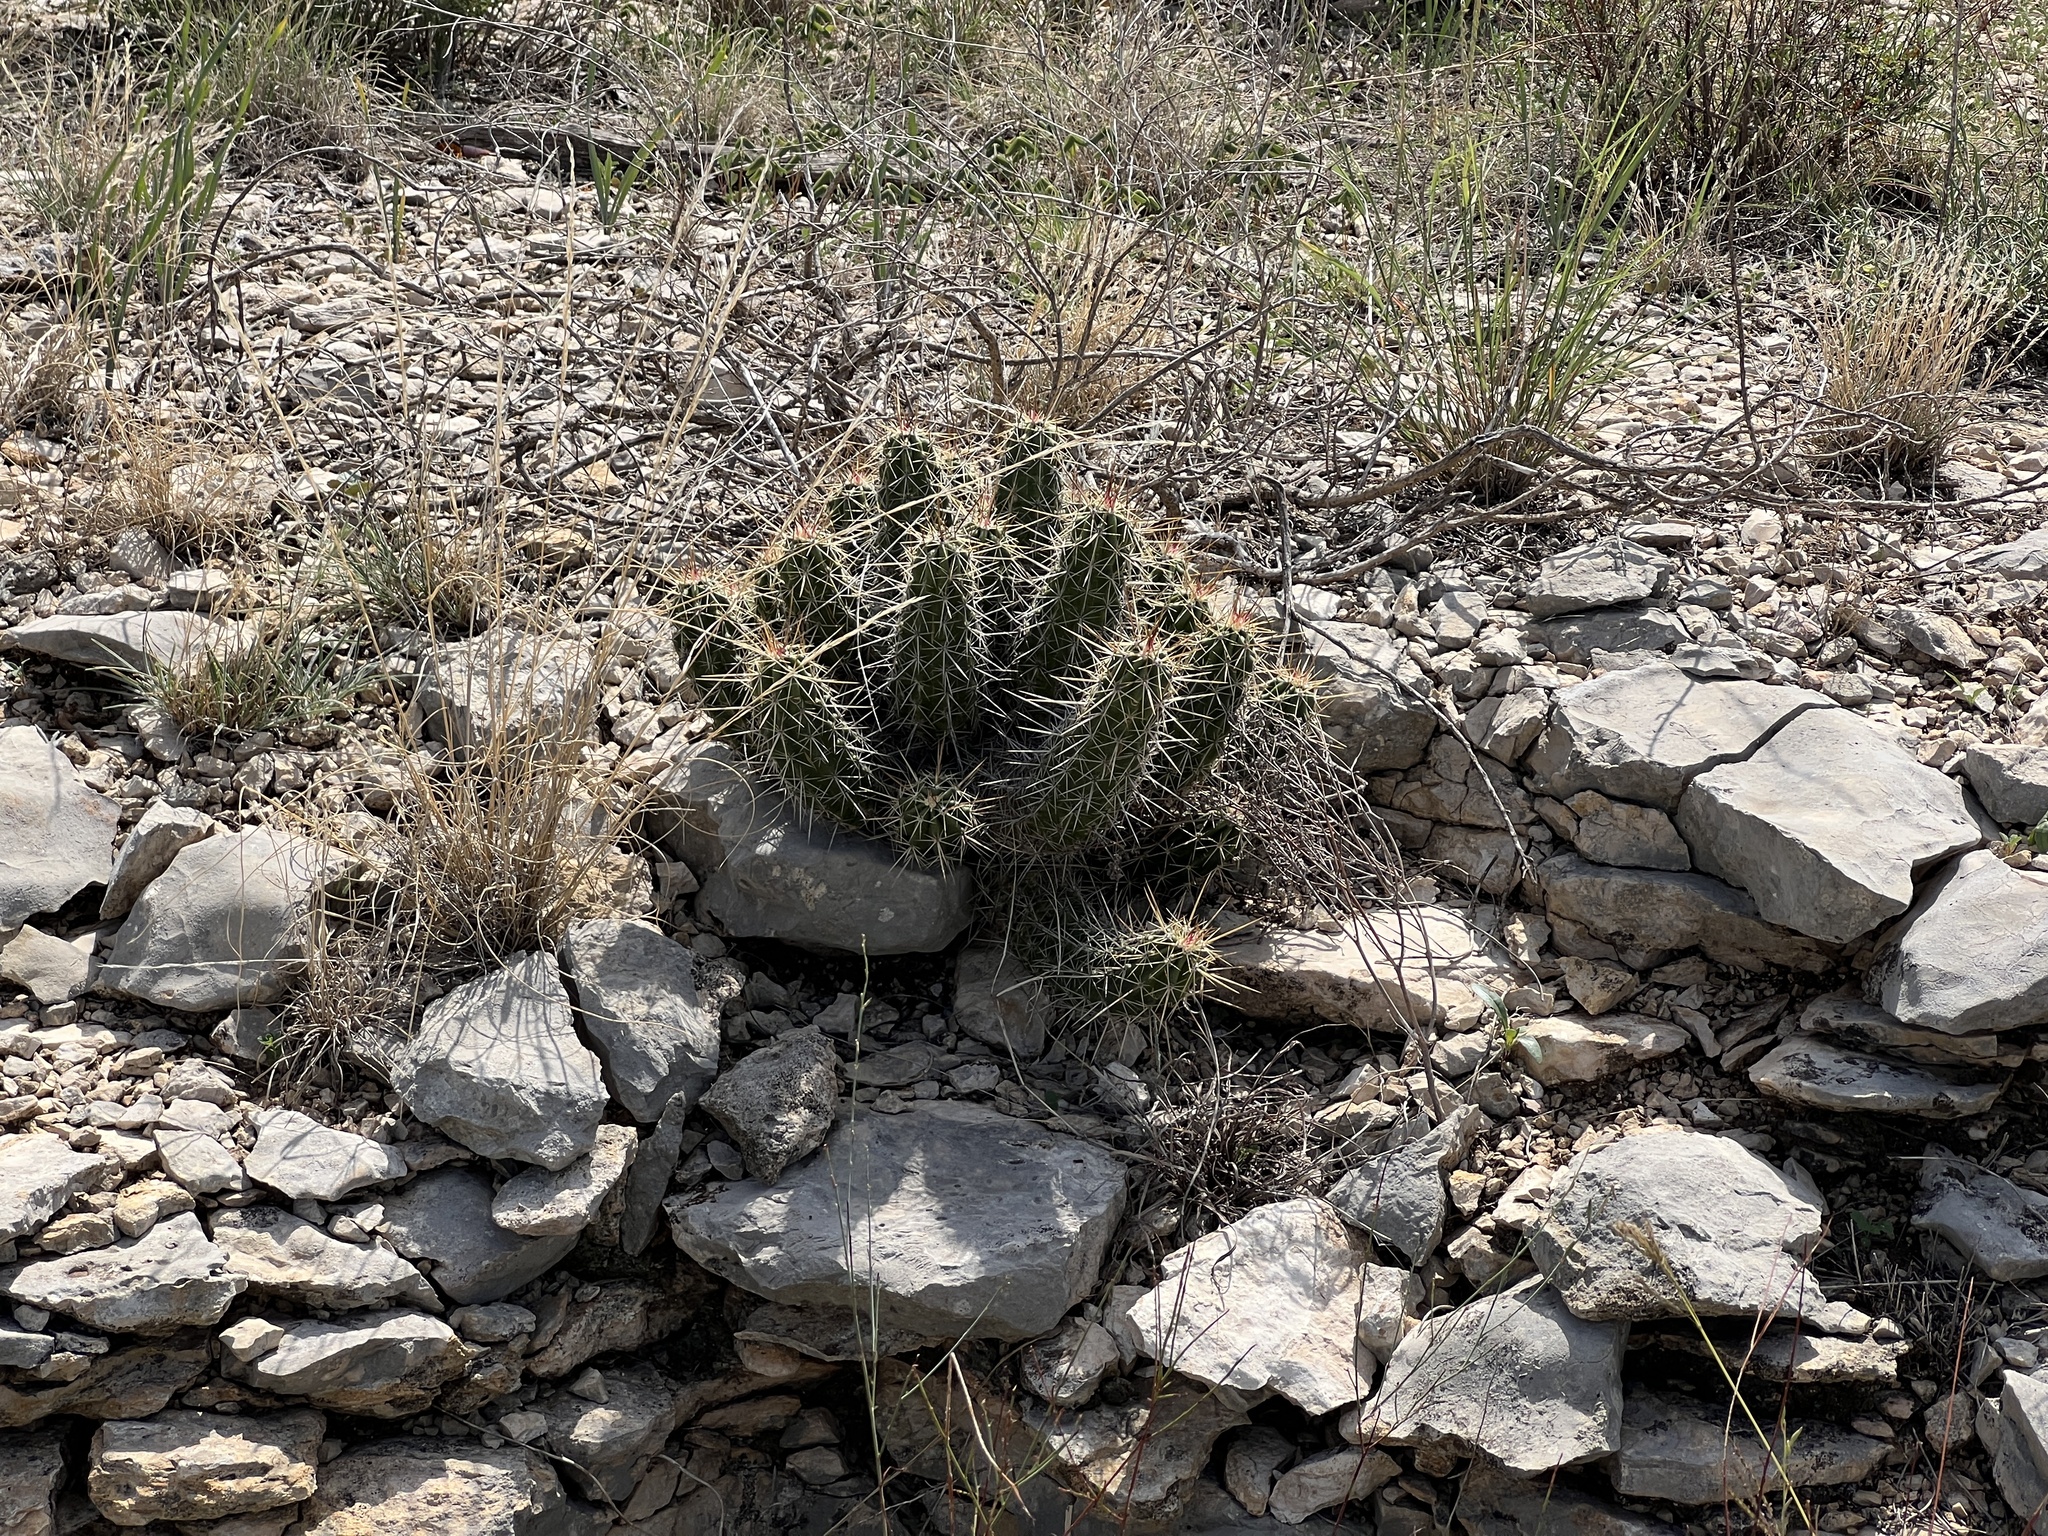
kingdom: Plantae
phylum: Tracheophyta
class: Magnoliopsida
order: Caryophyllales
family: Cactaceae
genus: Echinocereus
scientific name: Echinocereus enneacanthus
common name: Pitaya
